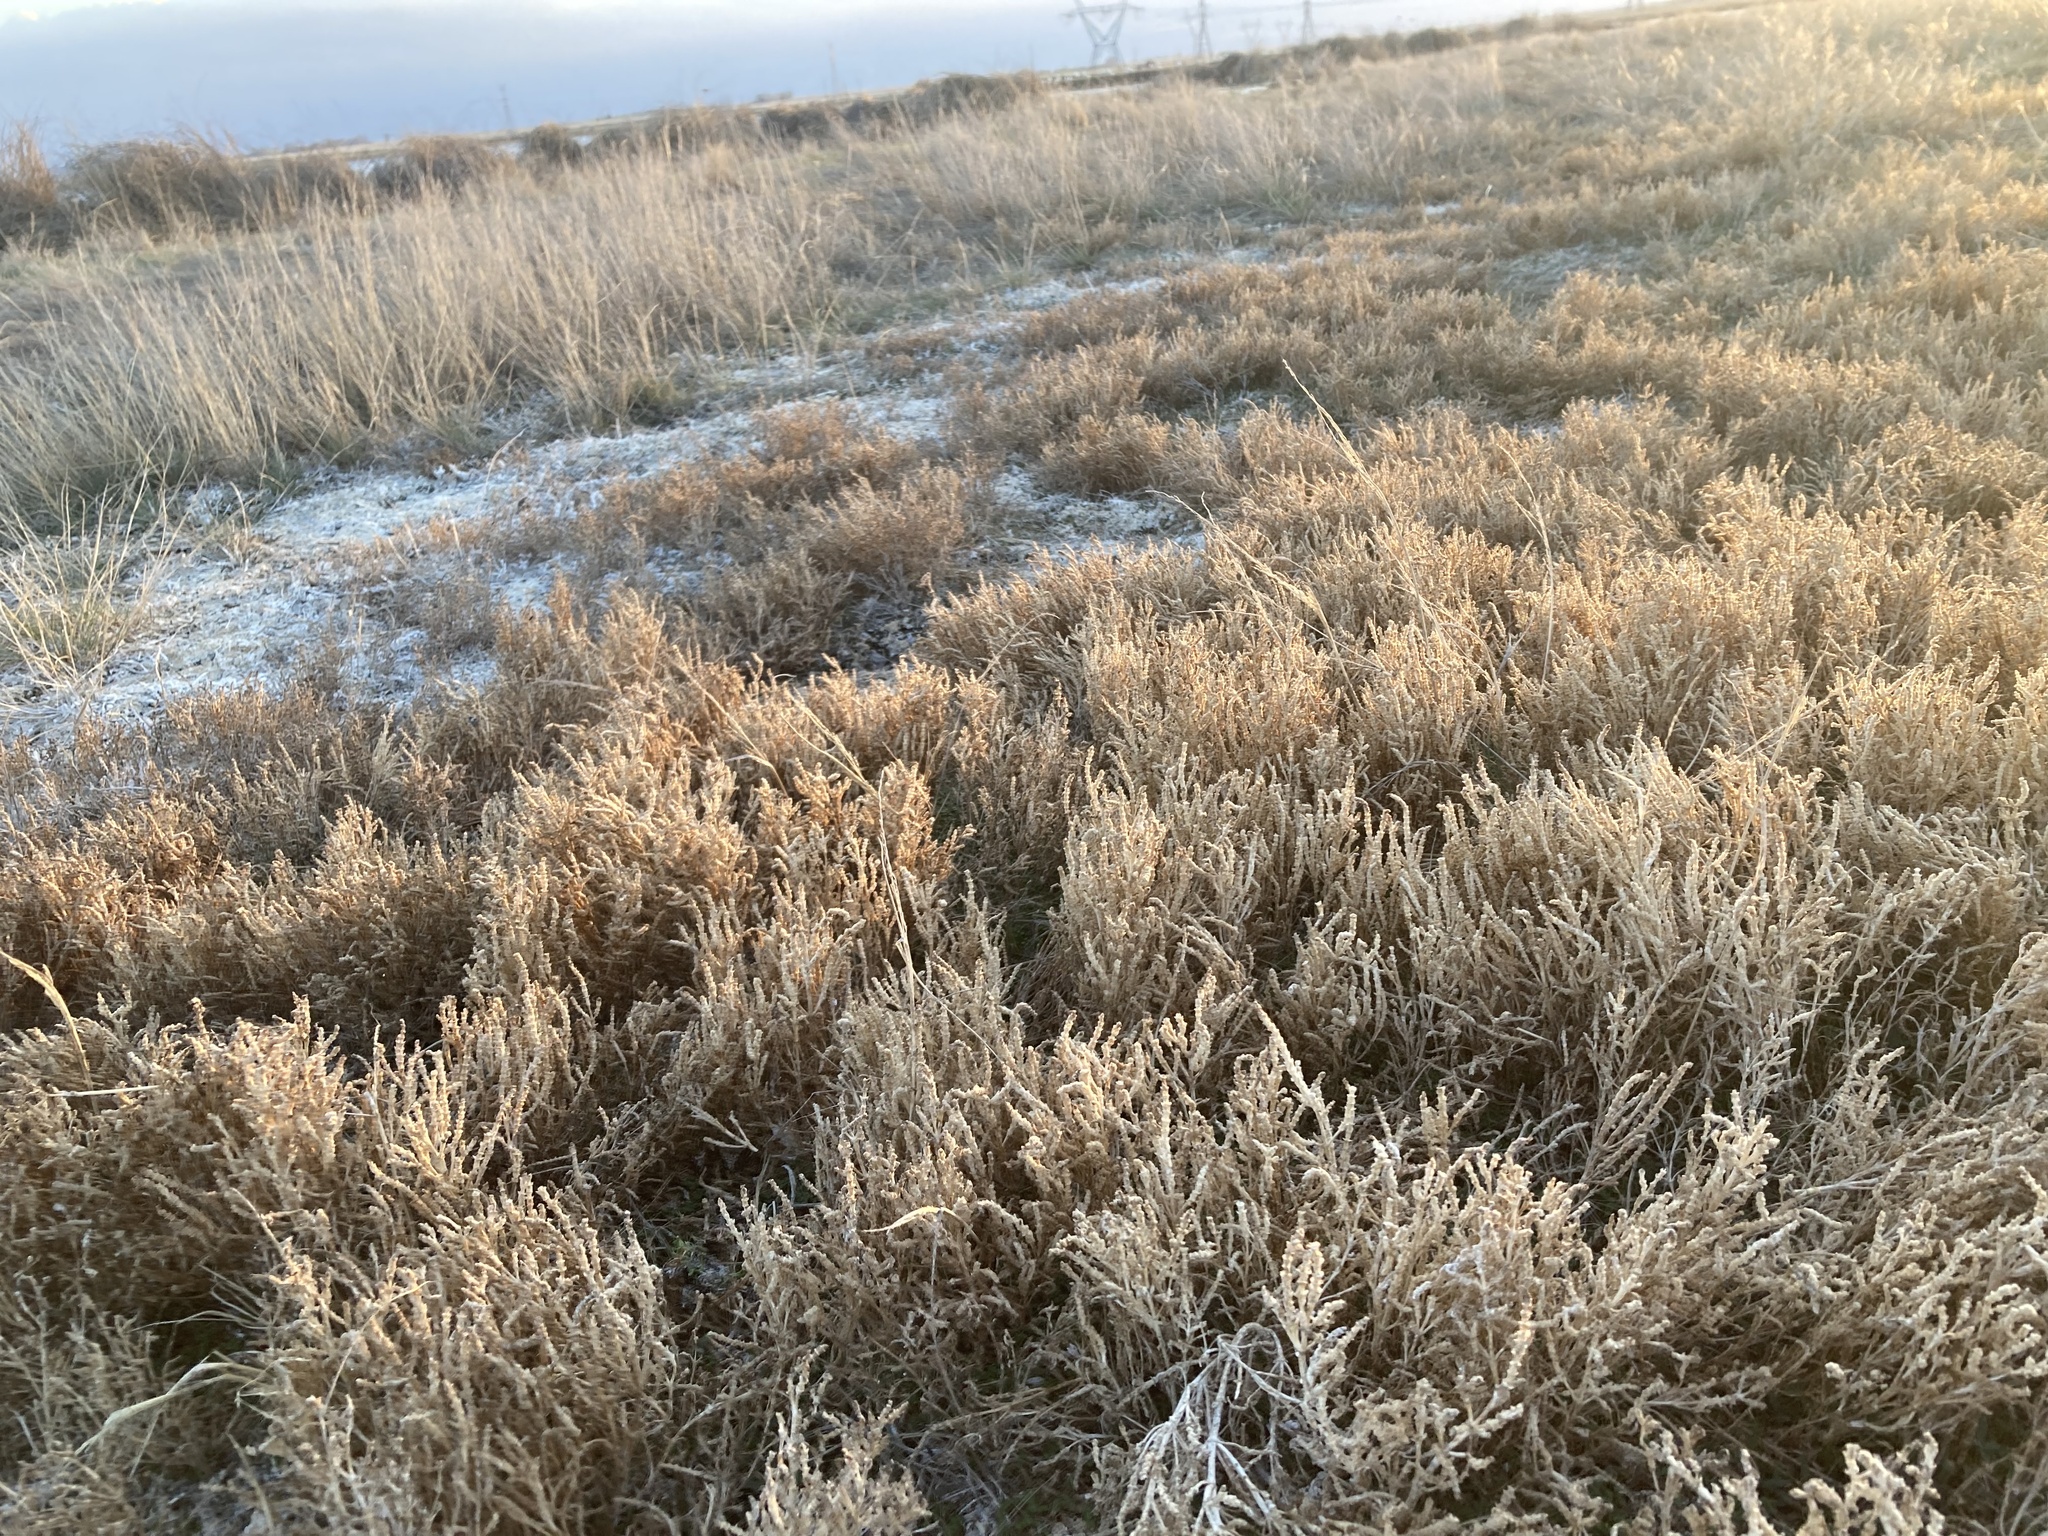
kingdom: Plantae
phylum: Tracheophyta
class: Magnoliopsida
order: Caryophyllales
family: Amaranthaceae
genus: Salicornia
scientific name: Salicornia rubra
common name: Red glasswort
